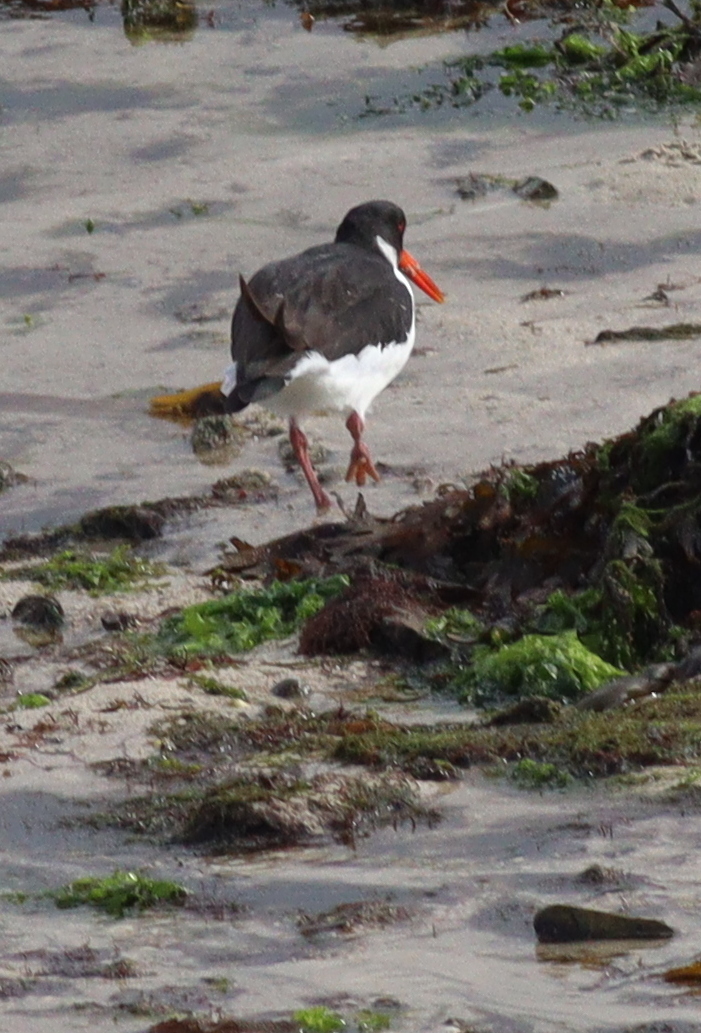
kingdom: Animalia
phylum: Chordata
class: Aves
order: Charadriiformes
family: Haematopodidae
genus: Haematopus
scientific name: Haematopus ostralegus
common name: Eurasian oystercatcher
